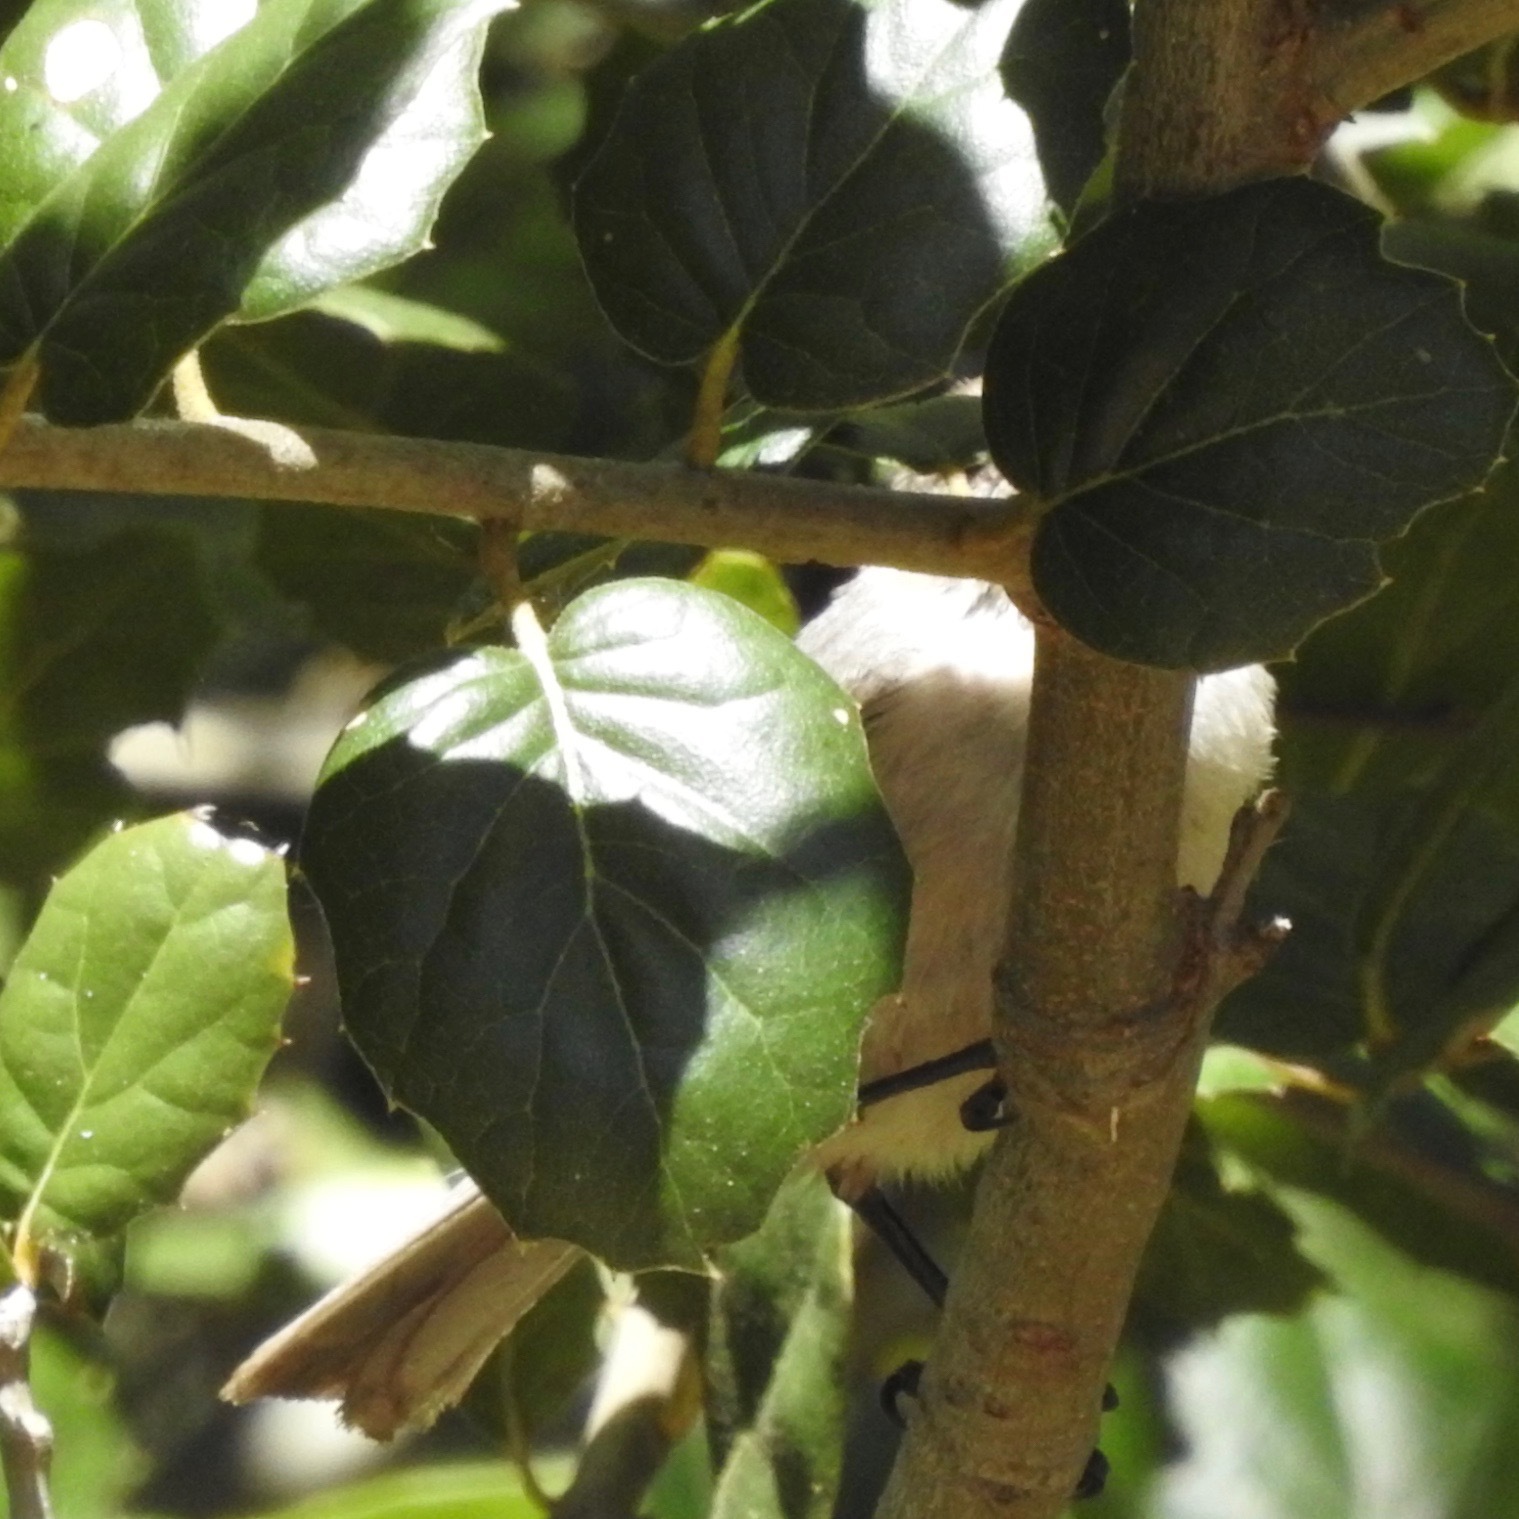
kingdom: Animalia
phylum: Chordata
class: Aves
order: Passeriformes
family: Aegithalidae
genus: Psaltriparus
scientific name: Psaltriparus minimus
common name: American bushtit
